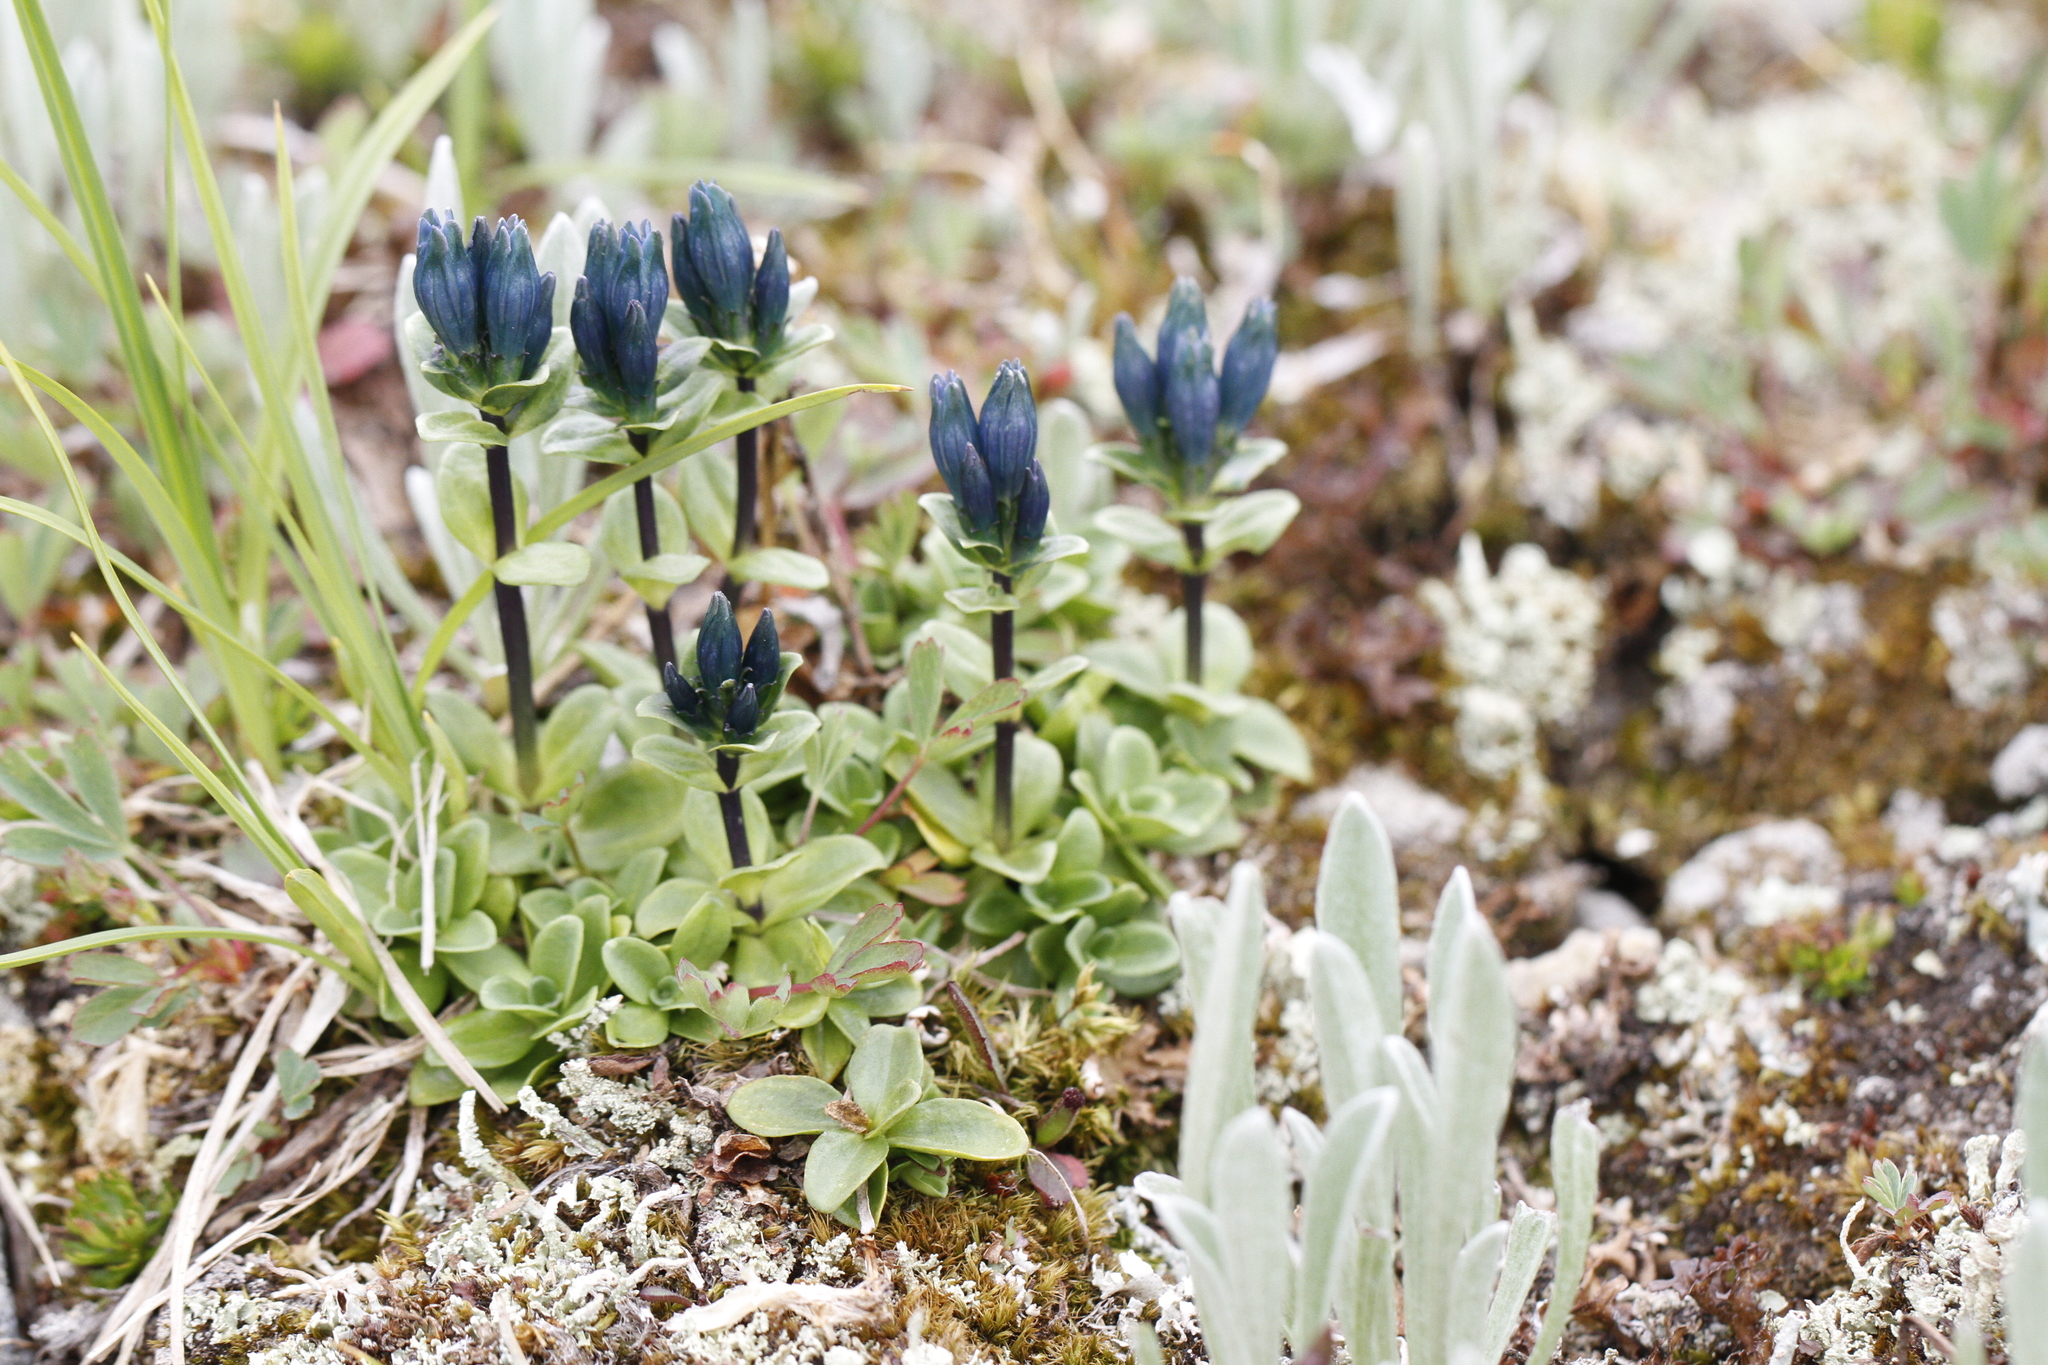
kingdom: Plantae
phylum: Tracheophyta
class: Magnoliopsida
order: Gentianales
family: Gentianaceae
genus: Gentiana
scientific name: Gentiana glauca
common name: Alpine gentian
